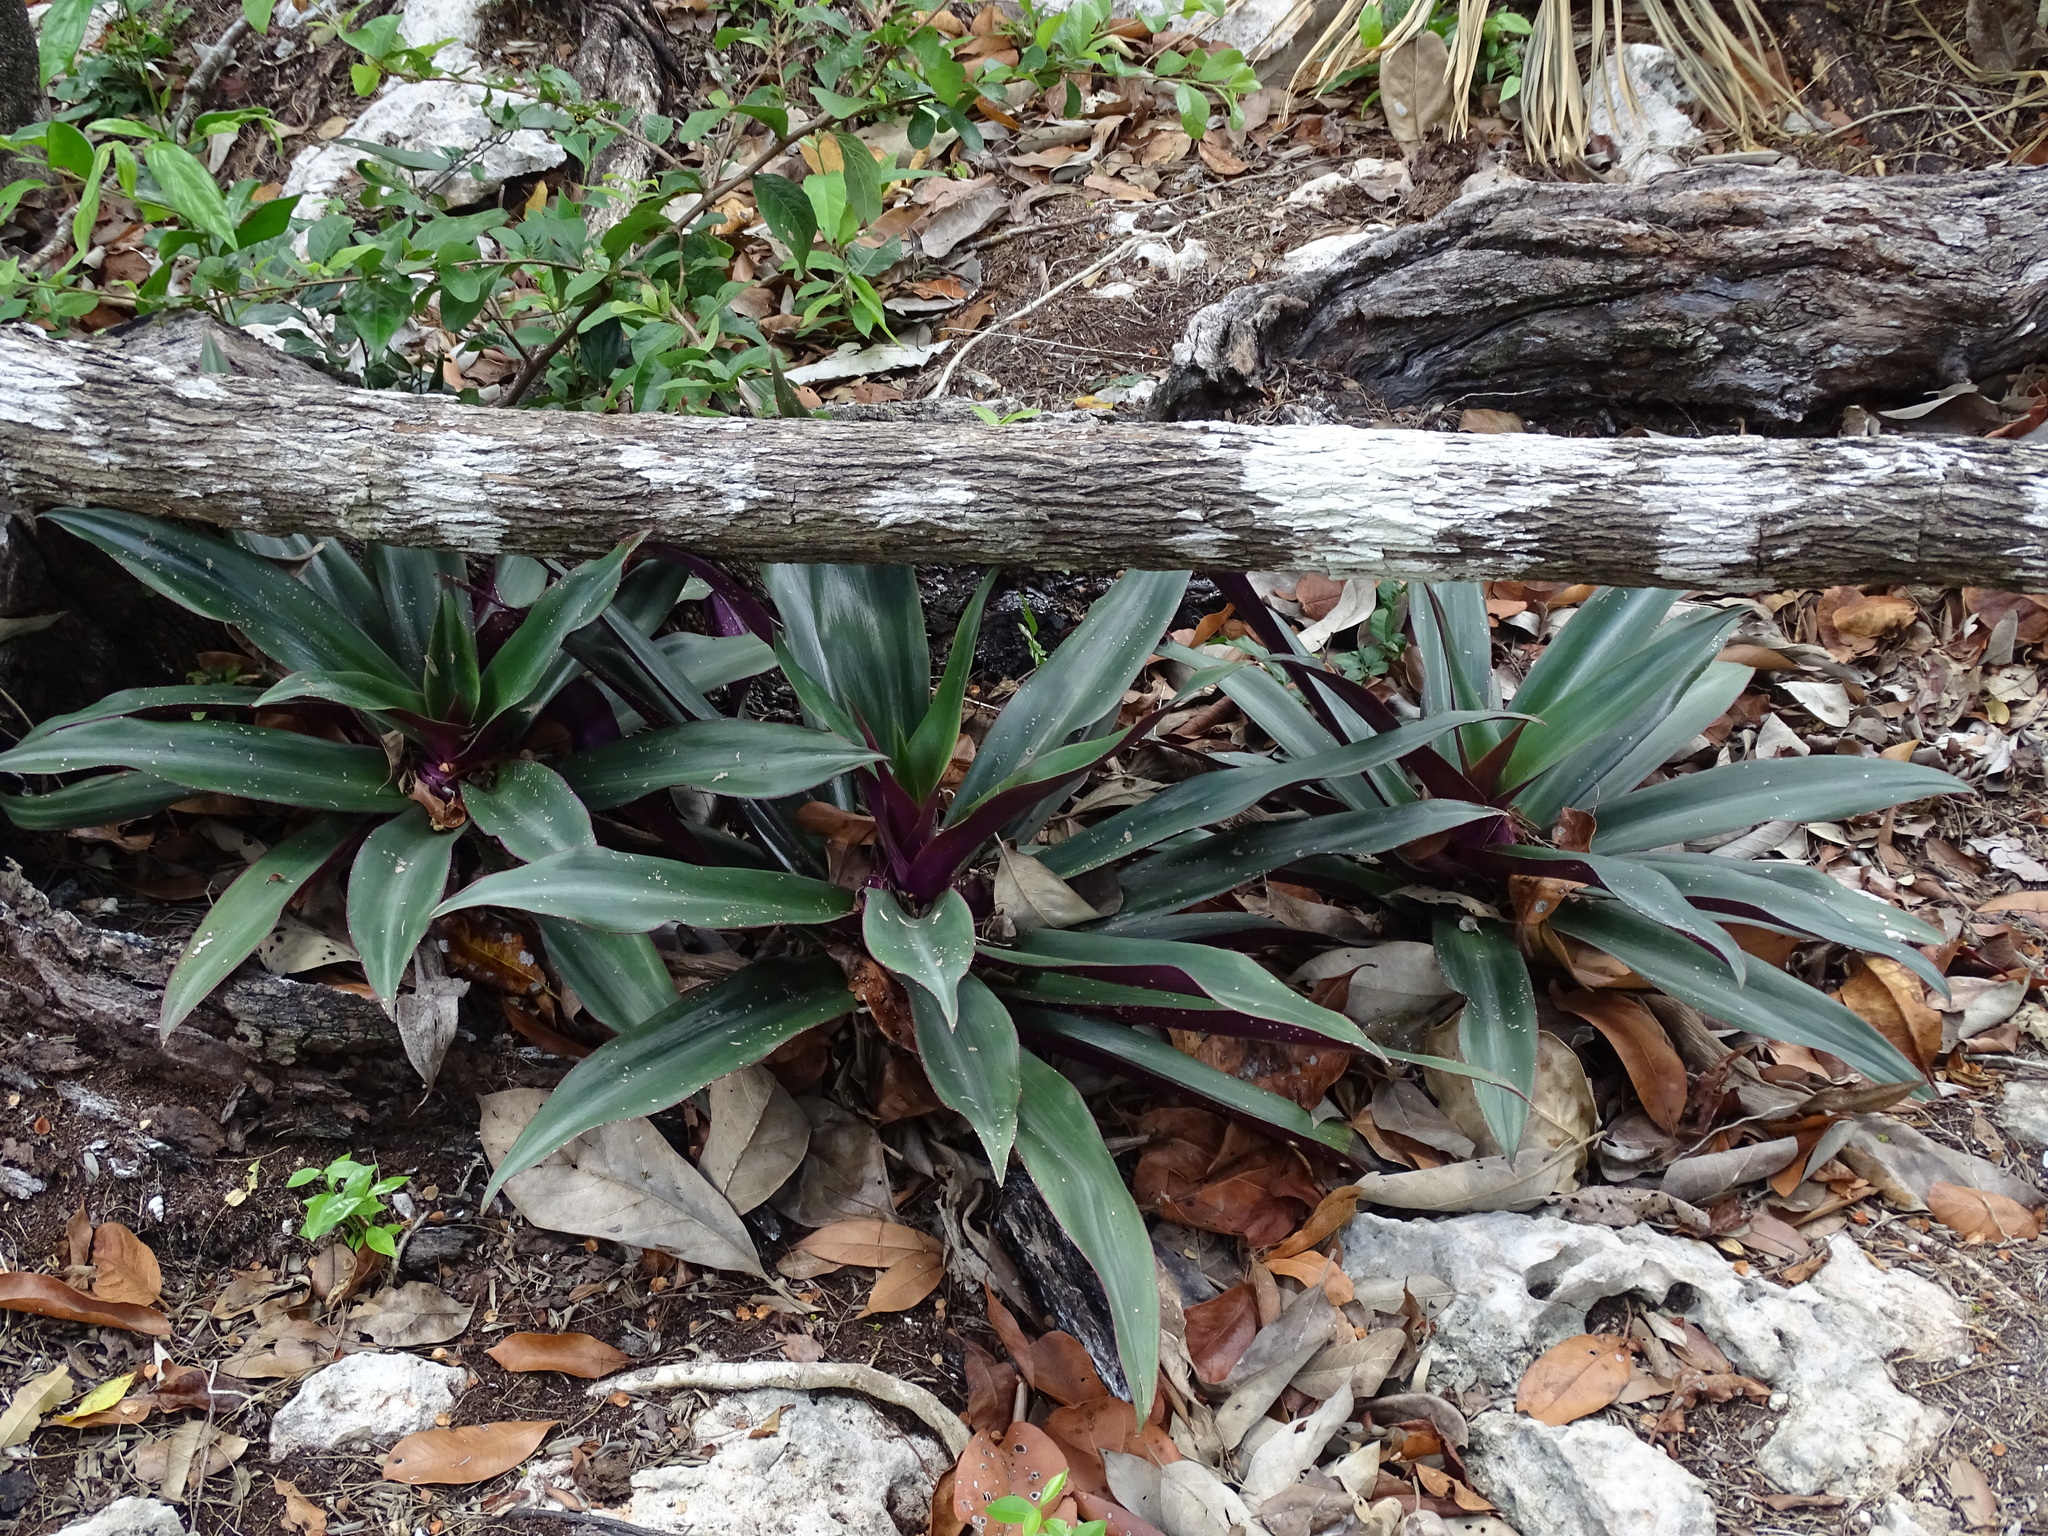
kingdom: Plantae
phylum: Tracheophyta
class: Liliopsida
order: Commelinales
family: Commelinaceae
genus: Tradescantia
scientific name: Tradescantia spathacea
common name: Boatlily
